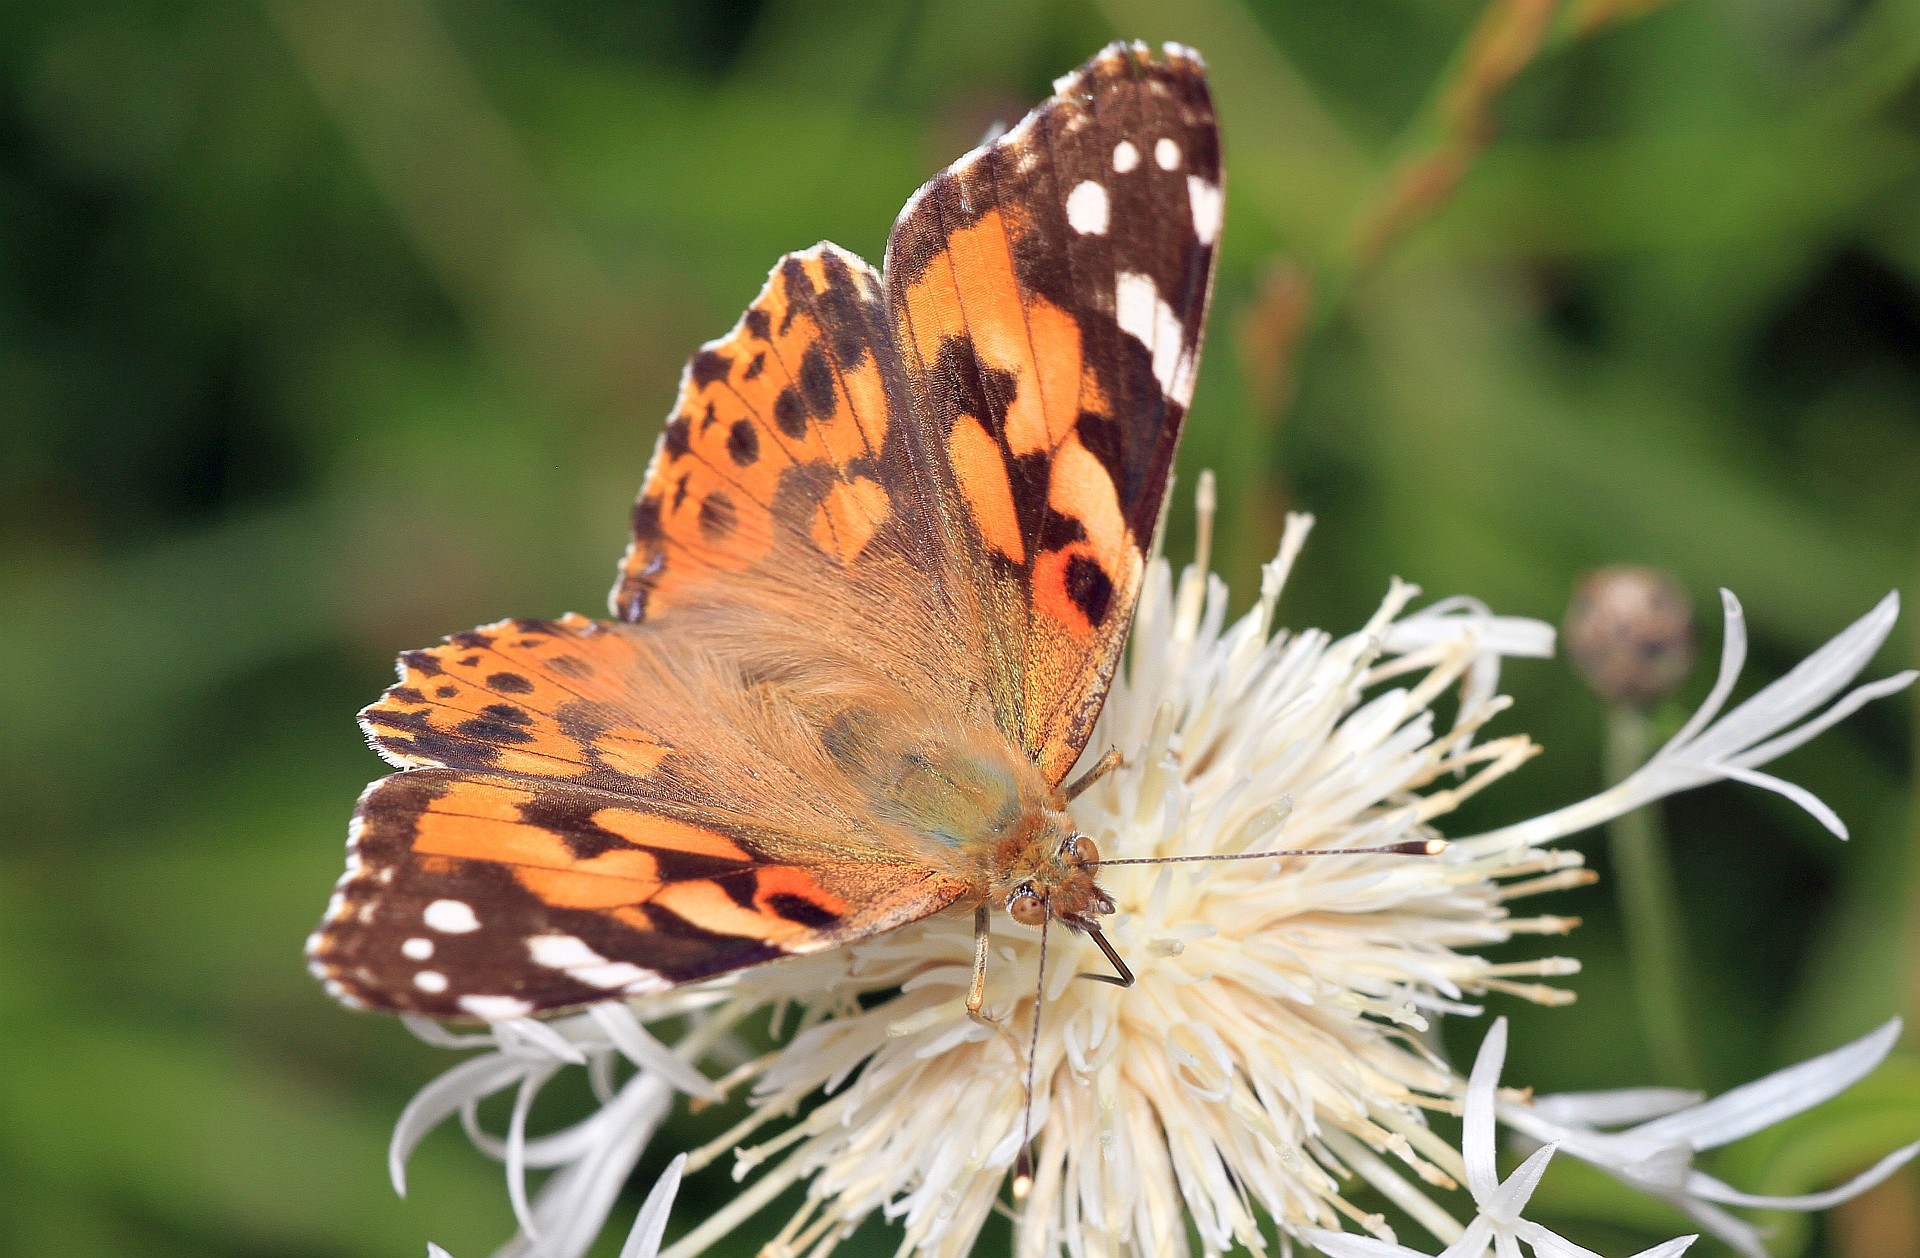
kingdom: Animalia
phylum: Arthropoda
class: Insecta
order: Lepidoptera
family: Nymphalidae
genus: Vanessa
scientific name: Vanessa cardui
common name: Painted lady
